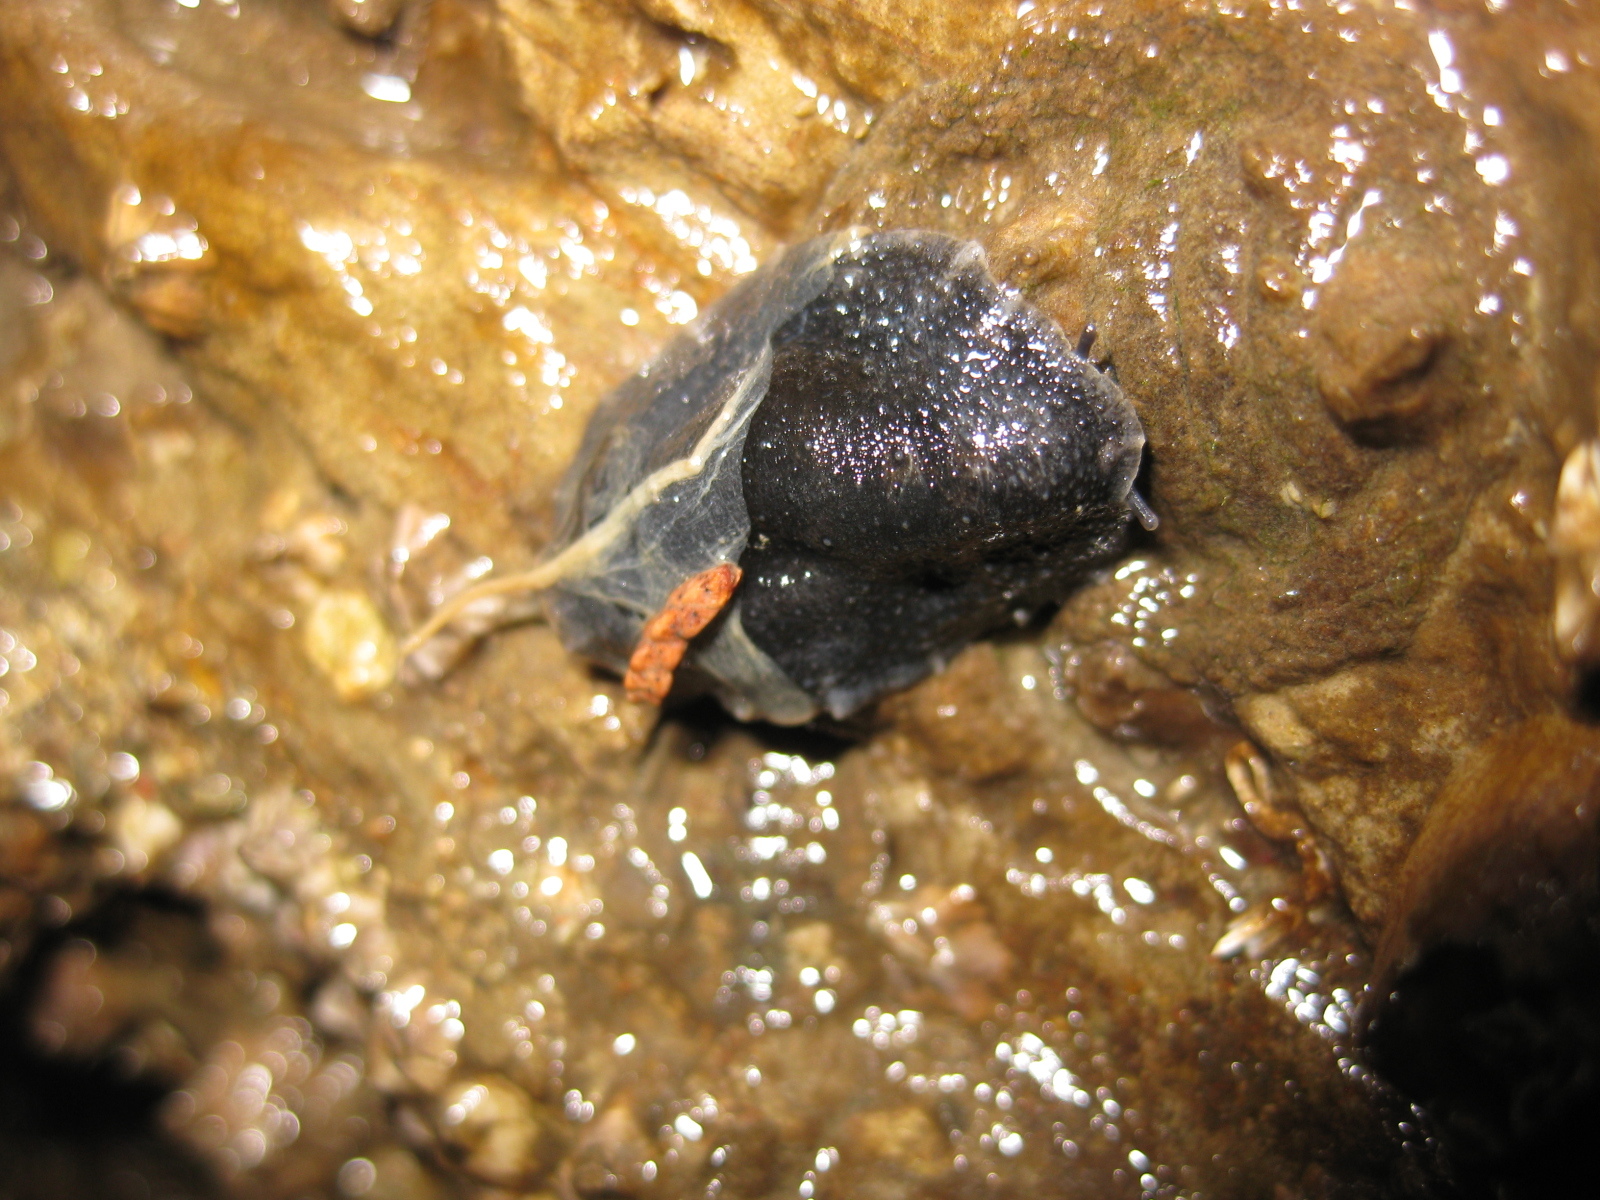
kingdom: Animalia
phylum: Mollusca
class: Gastropoda
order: Systellommatophora
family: Onchidiidae
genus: Onchidella
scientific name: Onchidella nigricans
